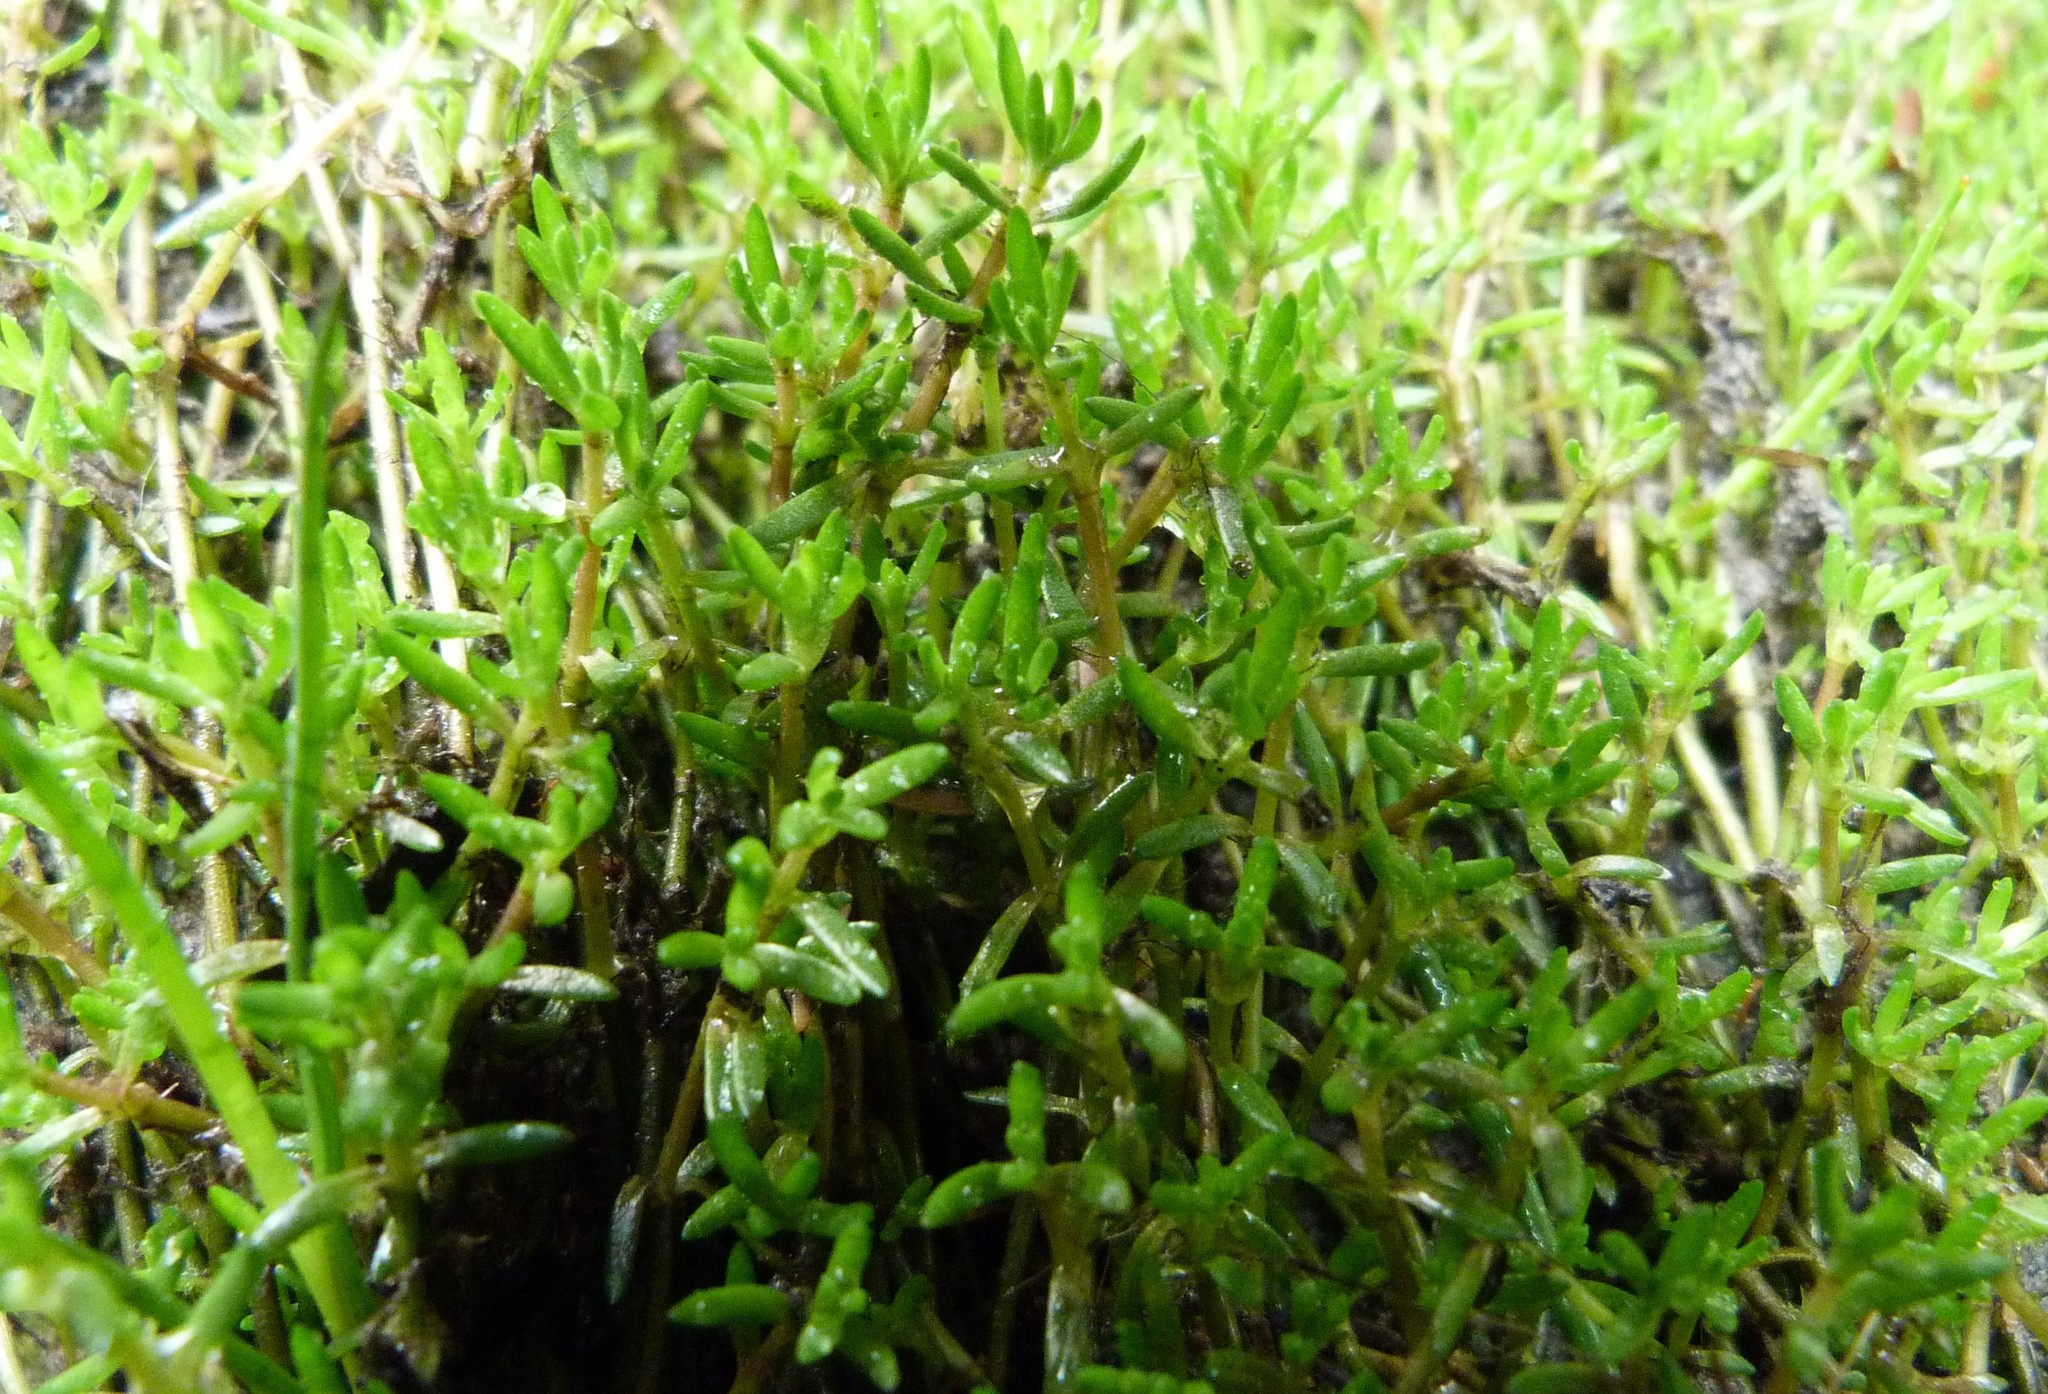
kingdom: Plantae
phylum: Tracheophyta
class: Magnoliopsida
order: Saxifragales
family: Crassulaceae
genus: Crassula
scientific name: Crassula sinclairii
